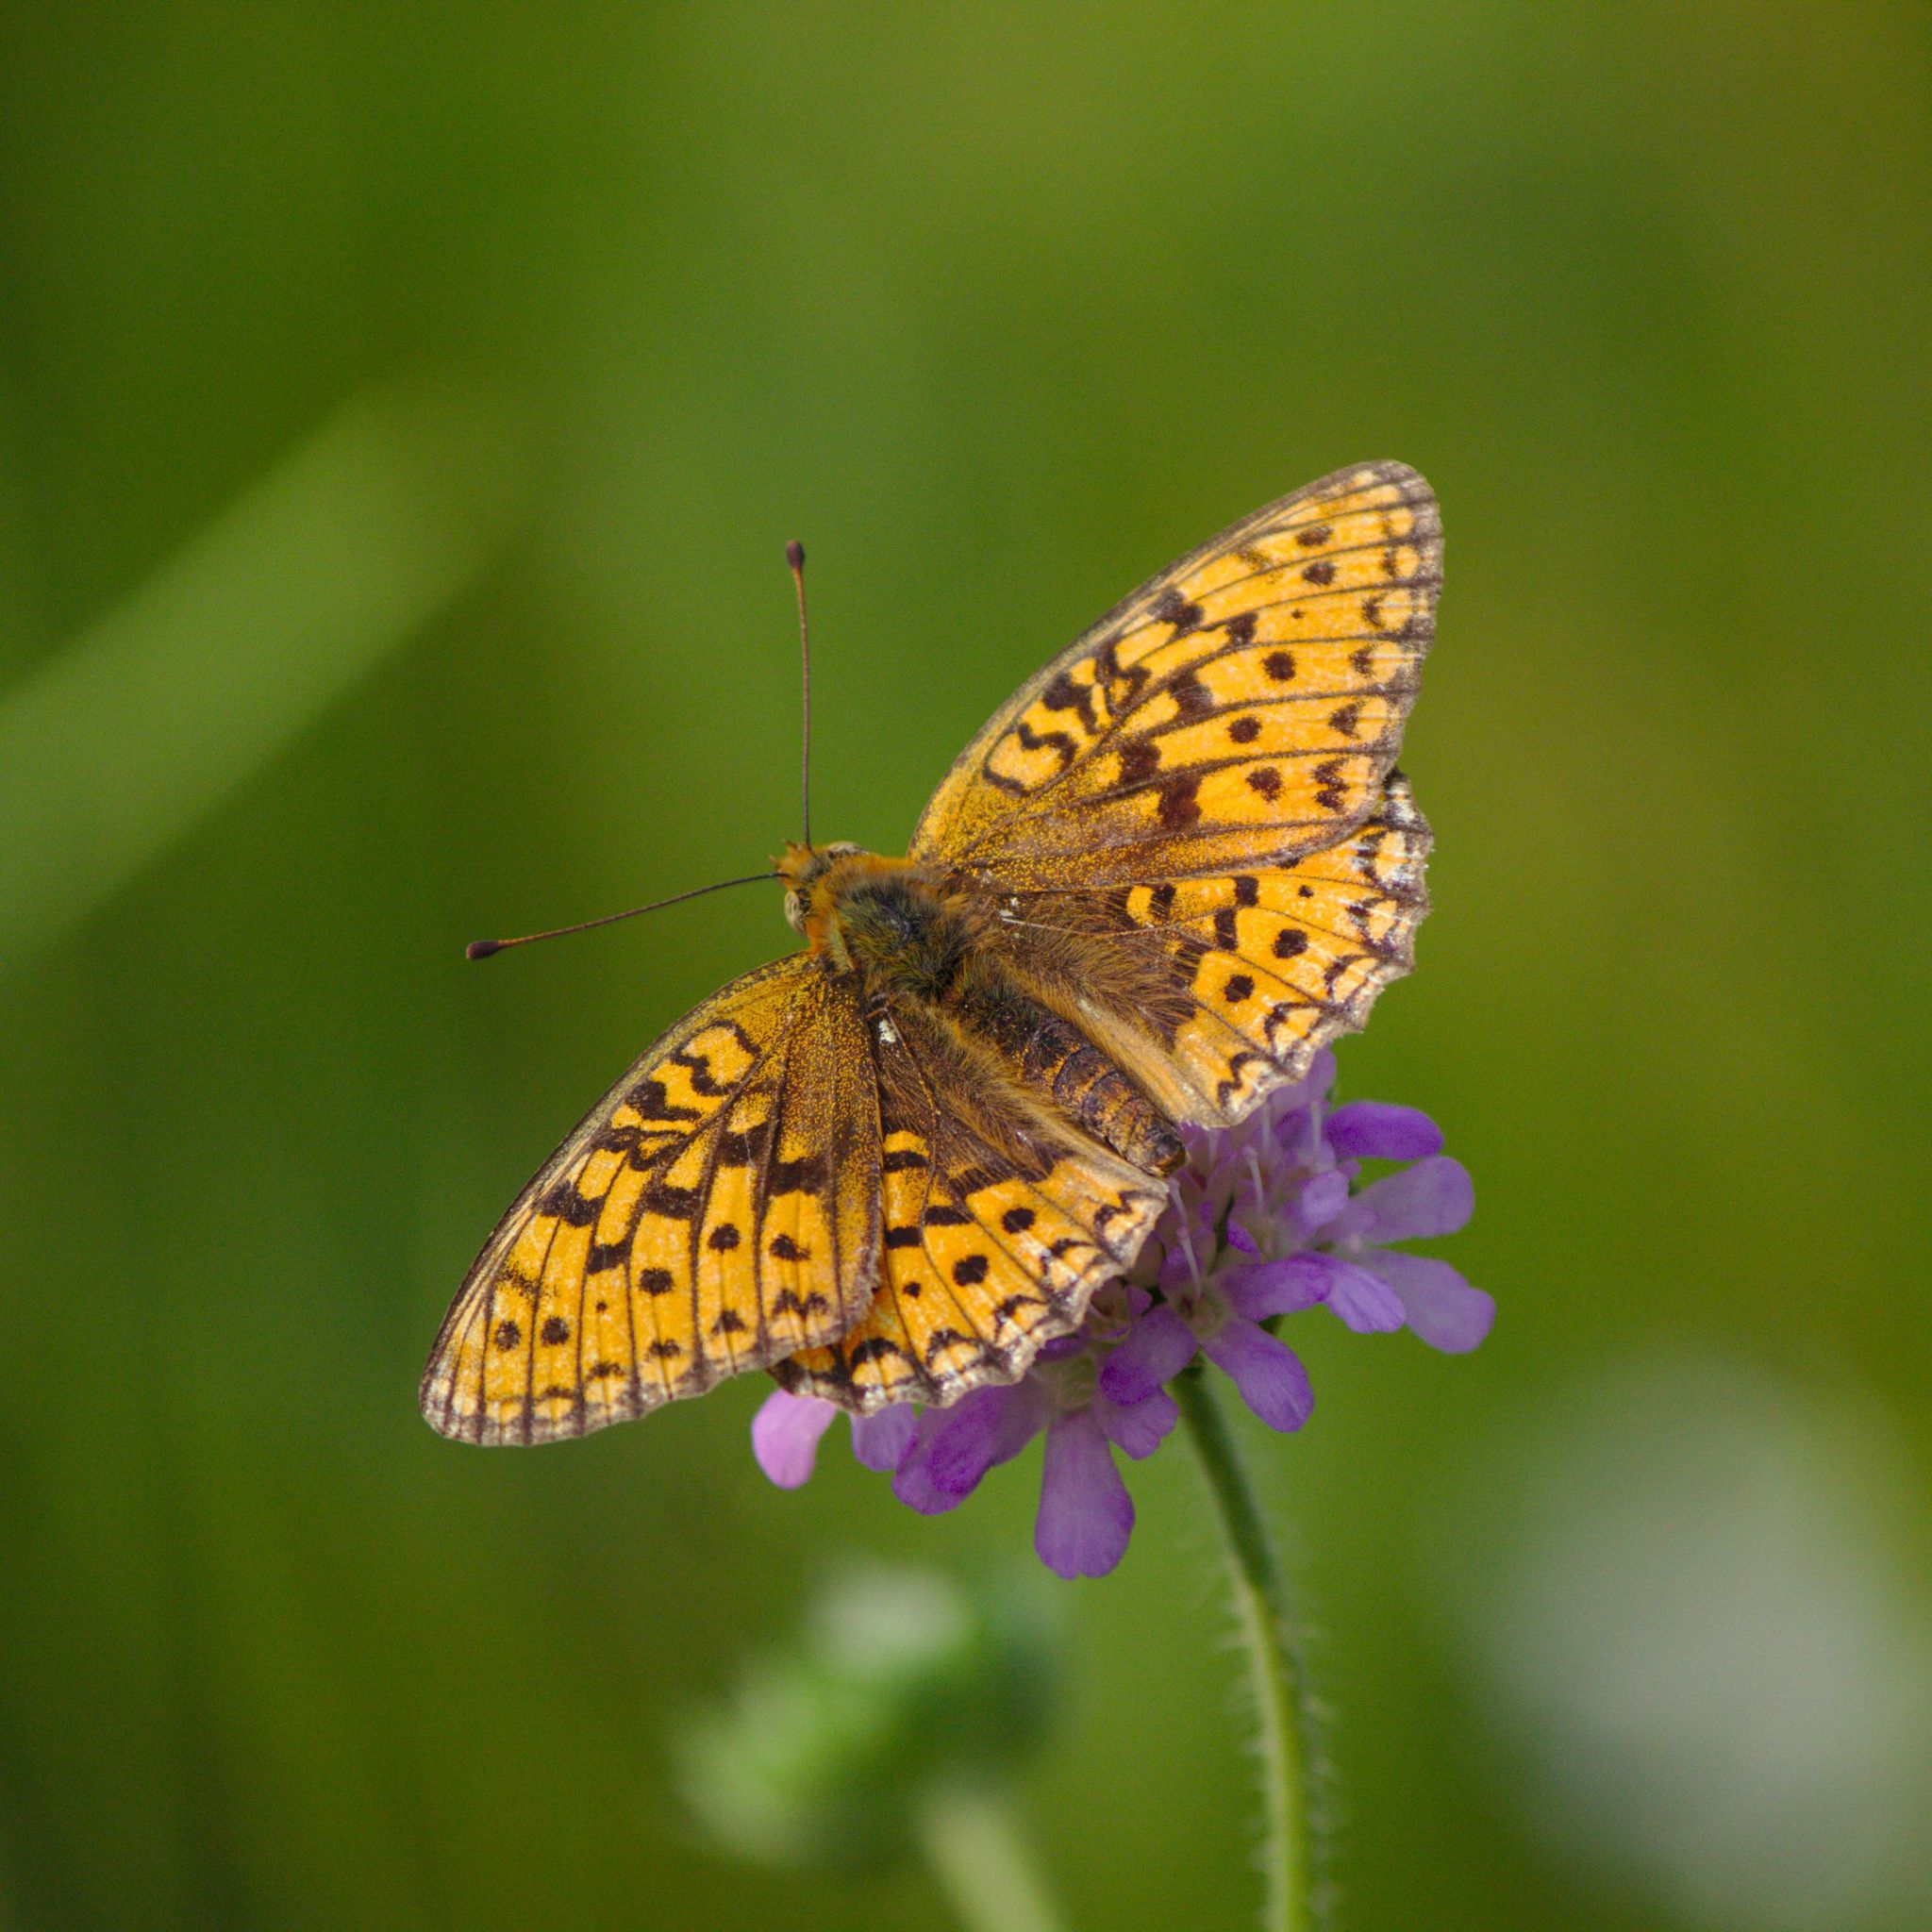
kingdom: Animalia
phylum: Arthropoda
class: Insecta
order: Lepidoptera
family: Nymphalidae
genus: Fabriciana
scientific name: Fabriciana niobe
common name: Niobe fritillary
